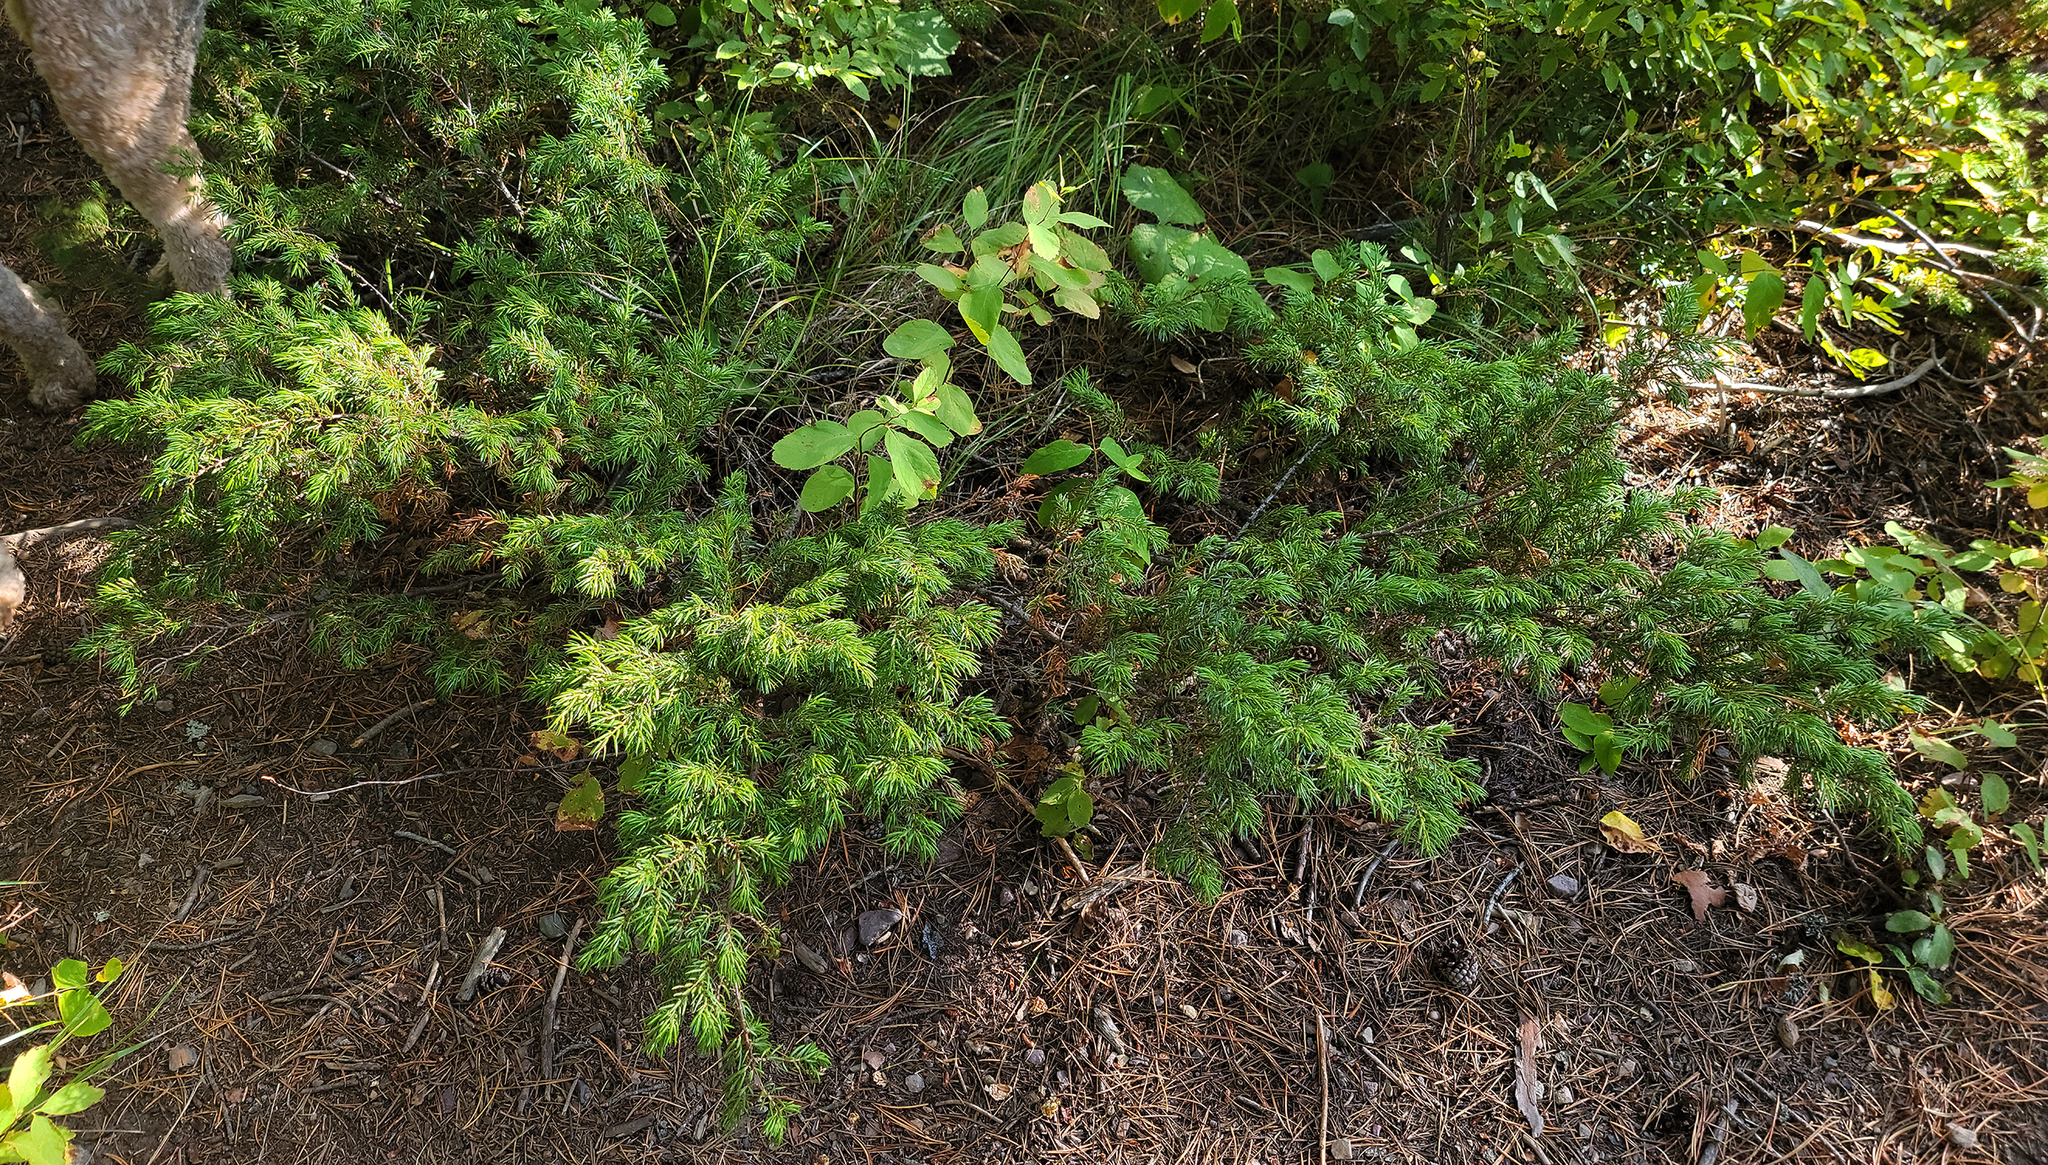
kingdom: Plantae
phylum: Tracheophyta
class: Pinopsida
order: Pinales
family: Cupressaceae
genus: Juniperus
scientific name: Juniperus communis
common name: Common juniper
